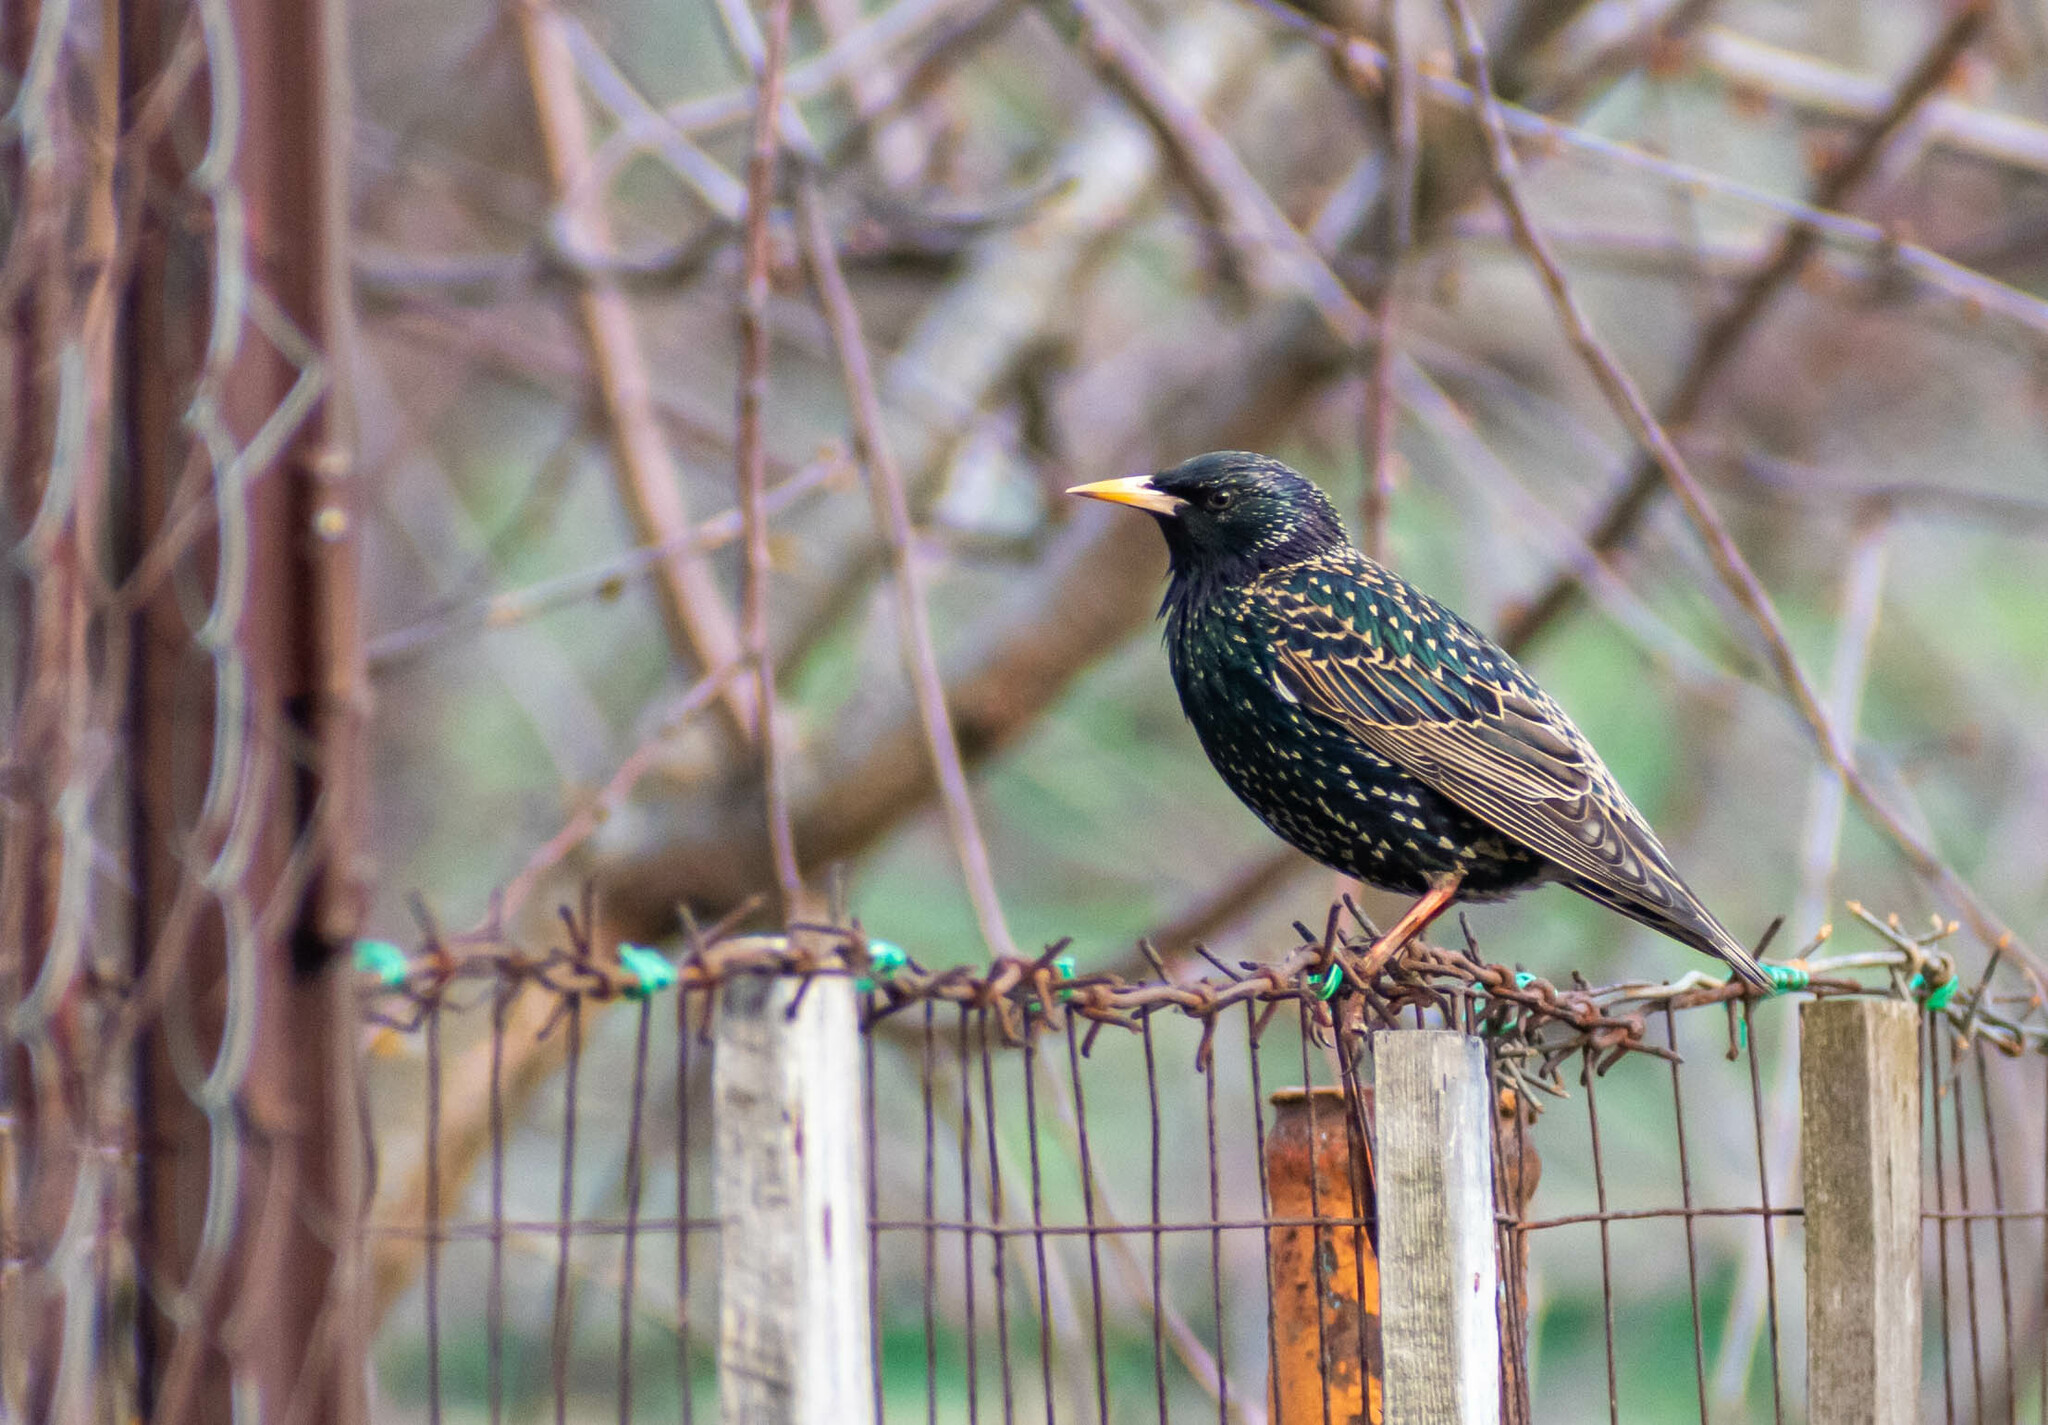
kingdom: Animalia
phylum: Chordata
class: Aves
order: Passeriformes
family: Sturnidae
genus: Sturnus
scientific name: Sturnus vulgaris
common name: Common starling
